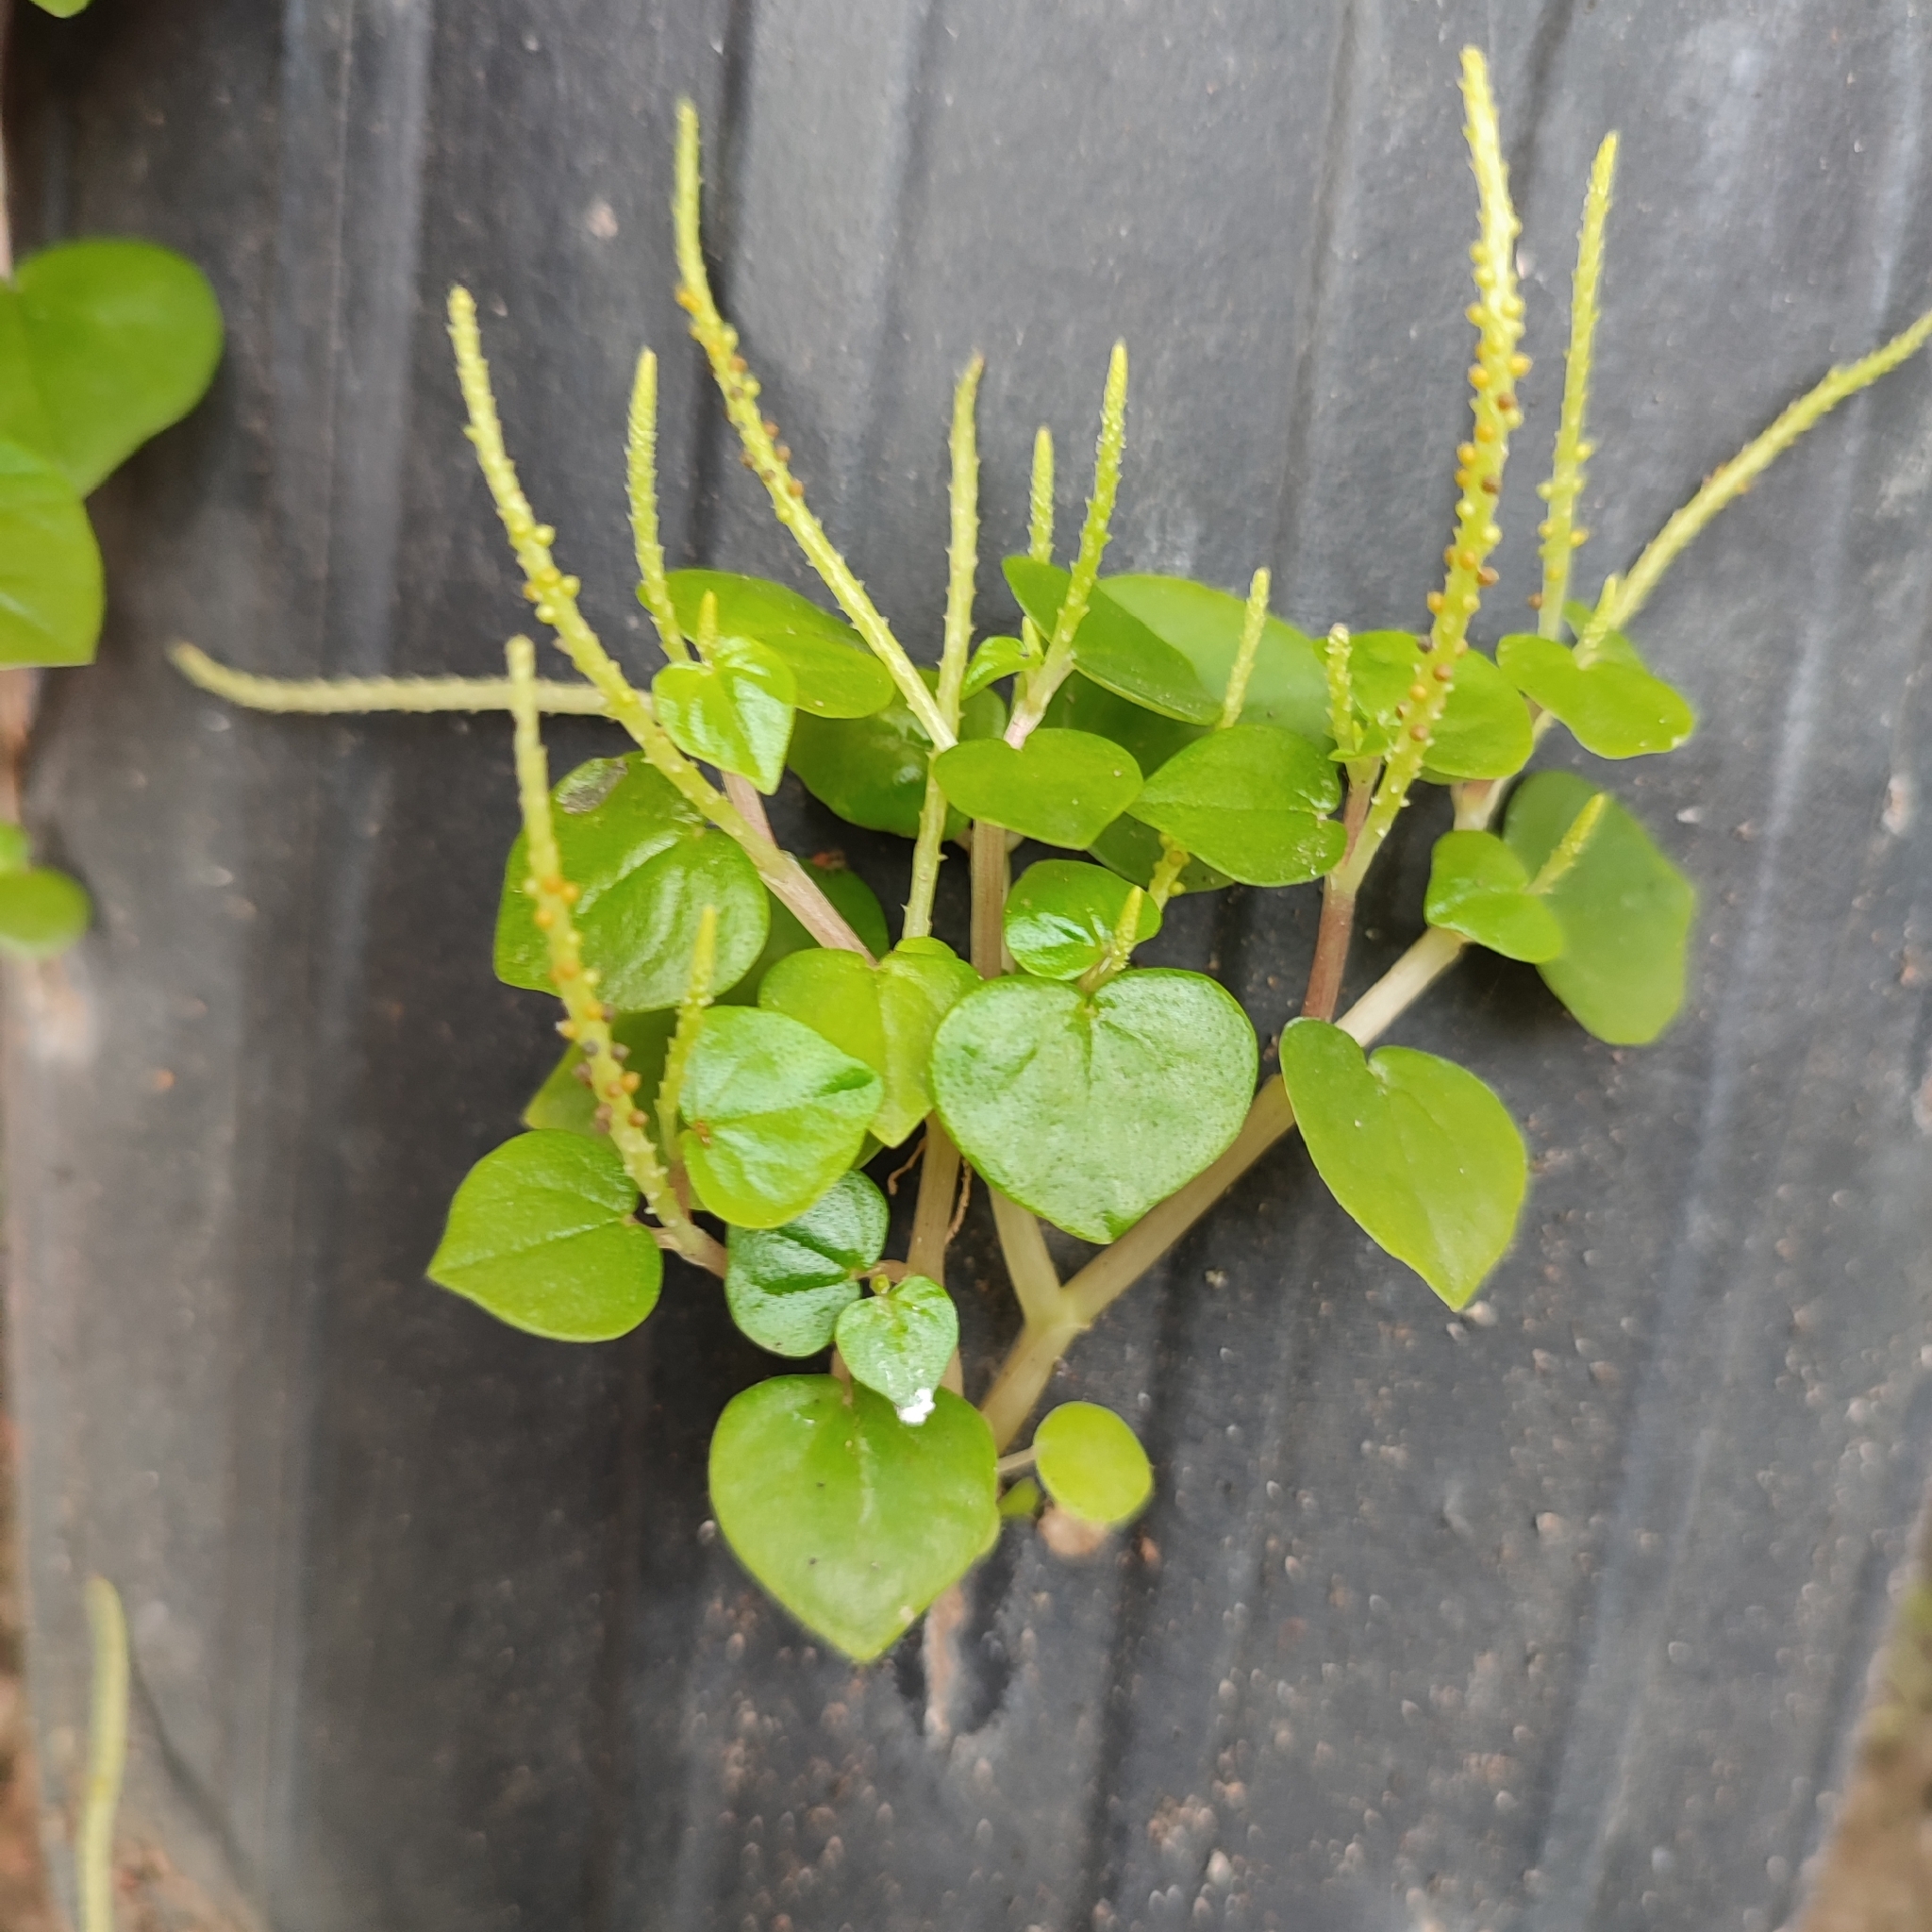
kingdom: Plantae
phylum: Tracheophyta
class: Magnoliopsida
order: Piperales
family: Piperaceae
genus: Peperomia
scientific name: Peperomia pellucida
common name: Man to man
